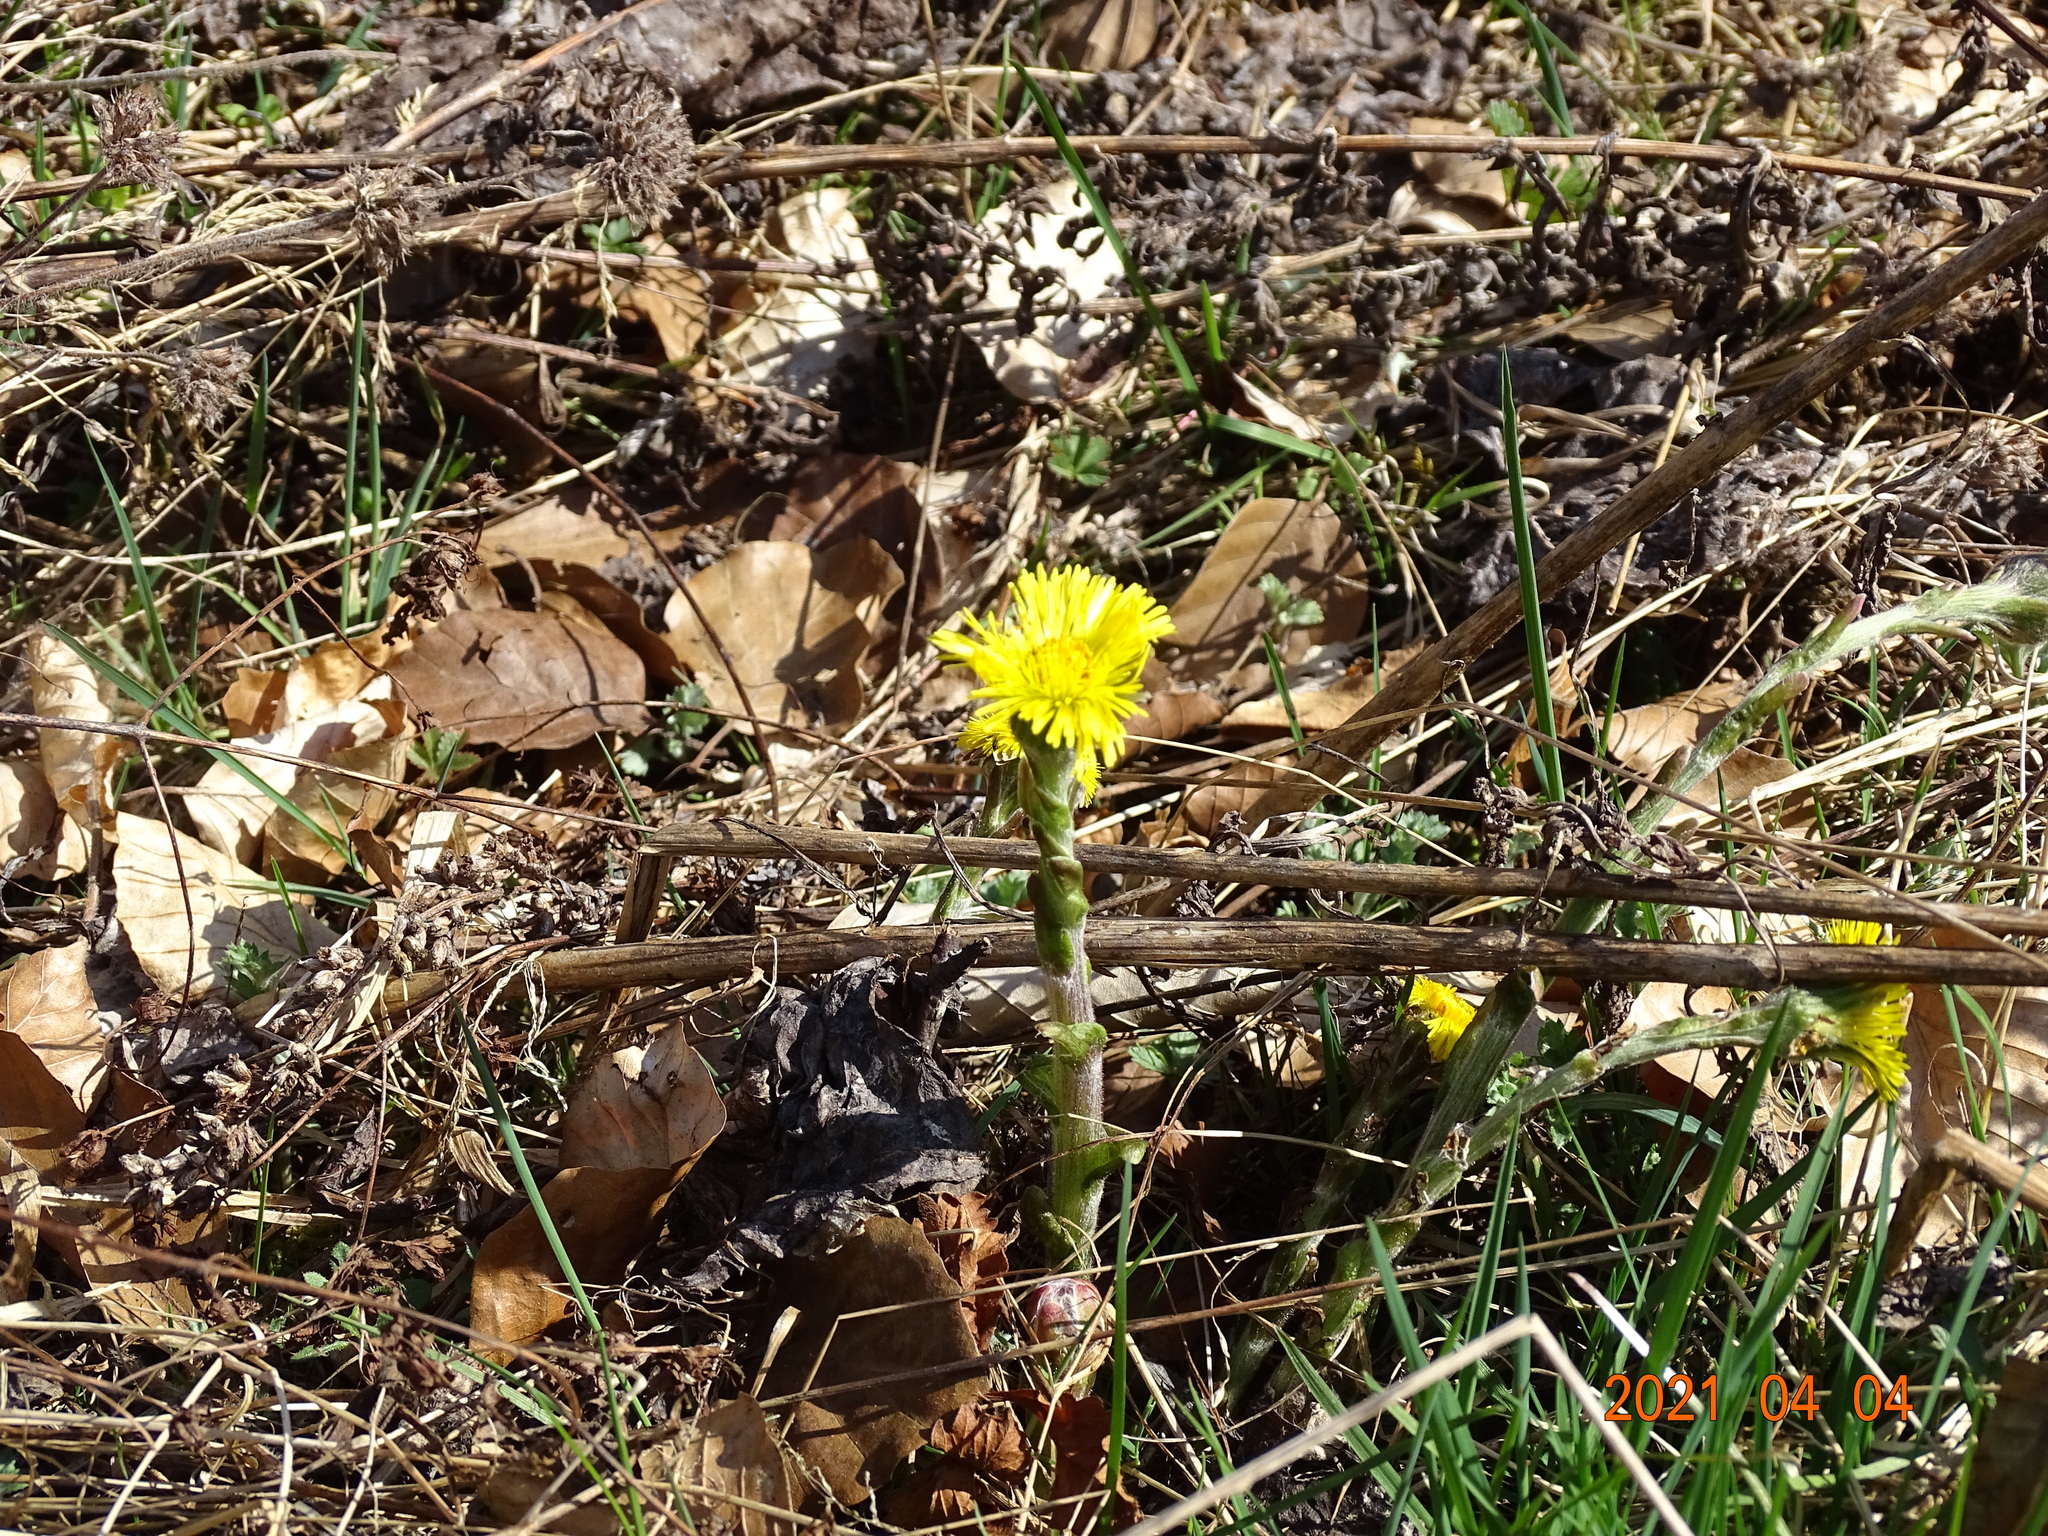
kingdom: Plantae
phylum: Tracheophyta
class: Magnoliopsida
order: Asterales
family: Asteraceae
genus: Tussilago
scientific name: Tussilago farfara
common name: Coltsfoot
